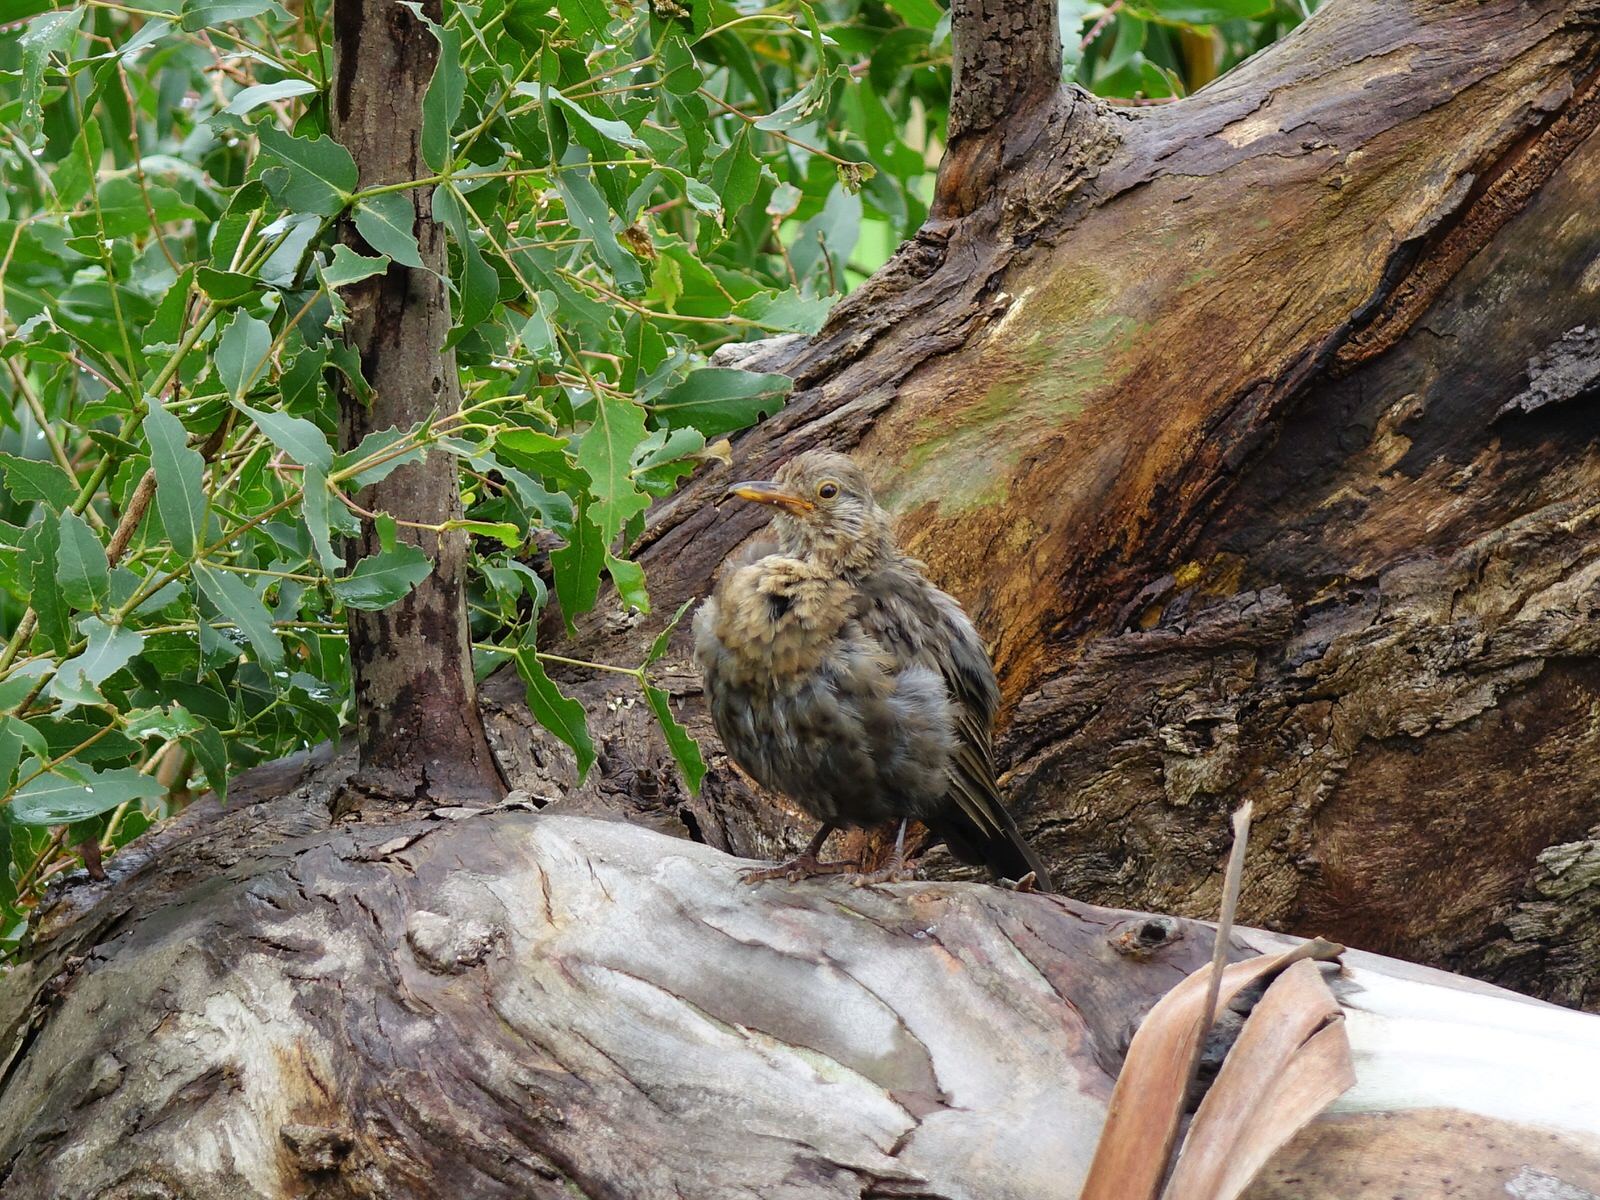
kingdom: Animalia
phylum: Chordata
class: Aves
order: Passeriformes
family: Turdidae
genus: Turdus
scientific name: Turdus merula
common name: Common blackbird
